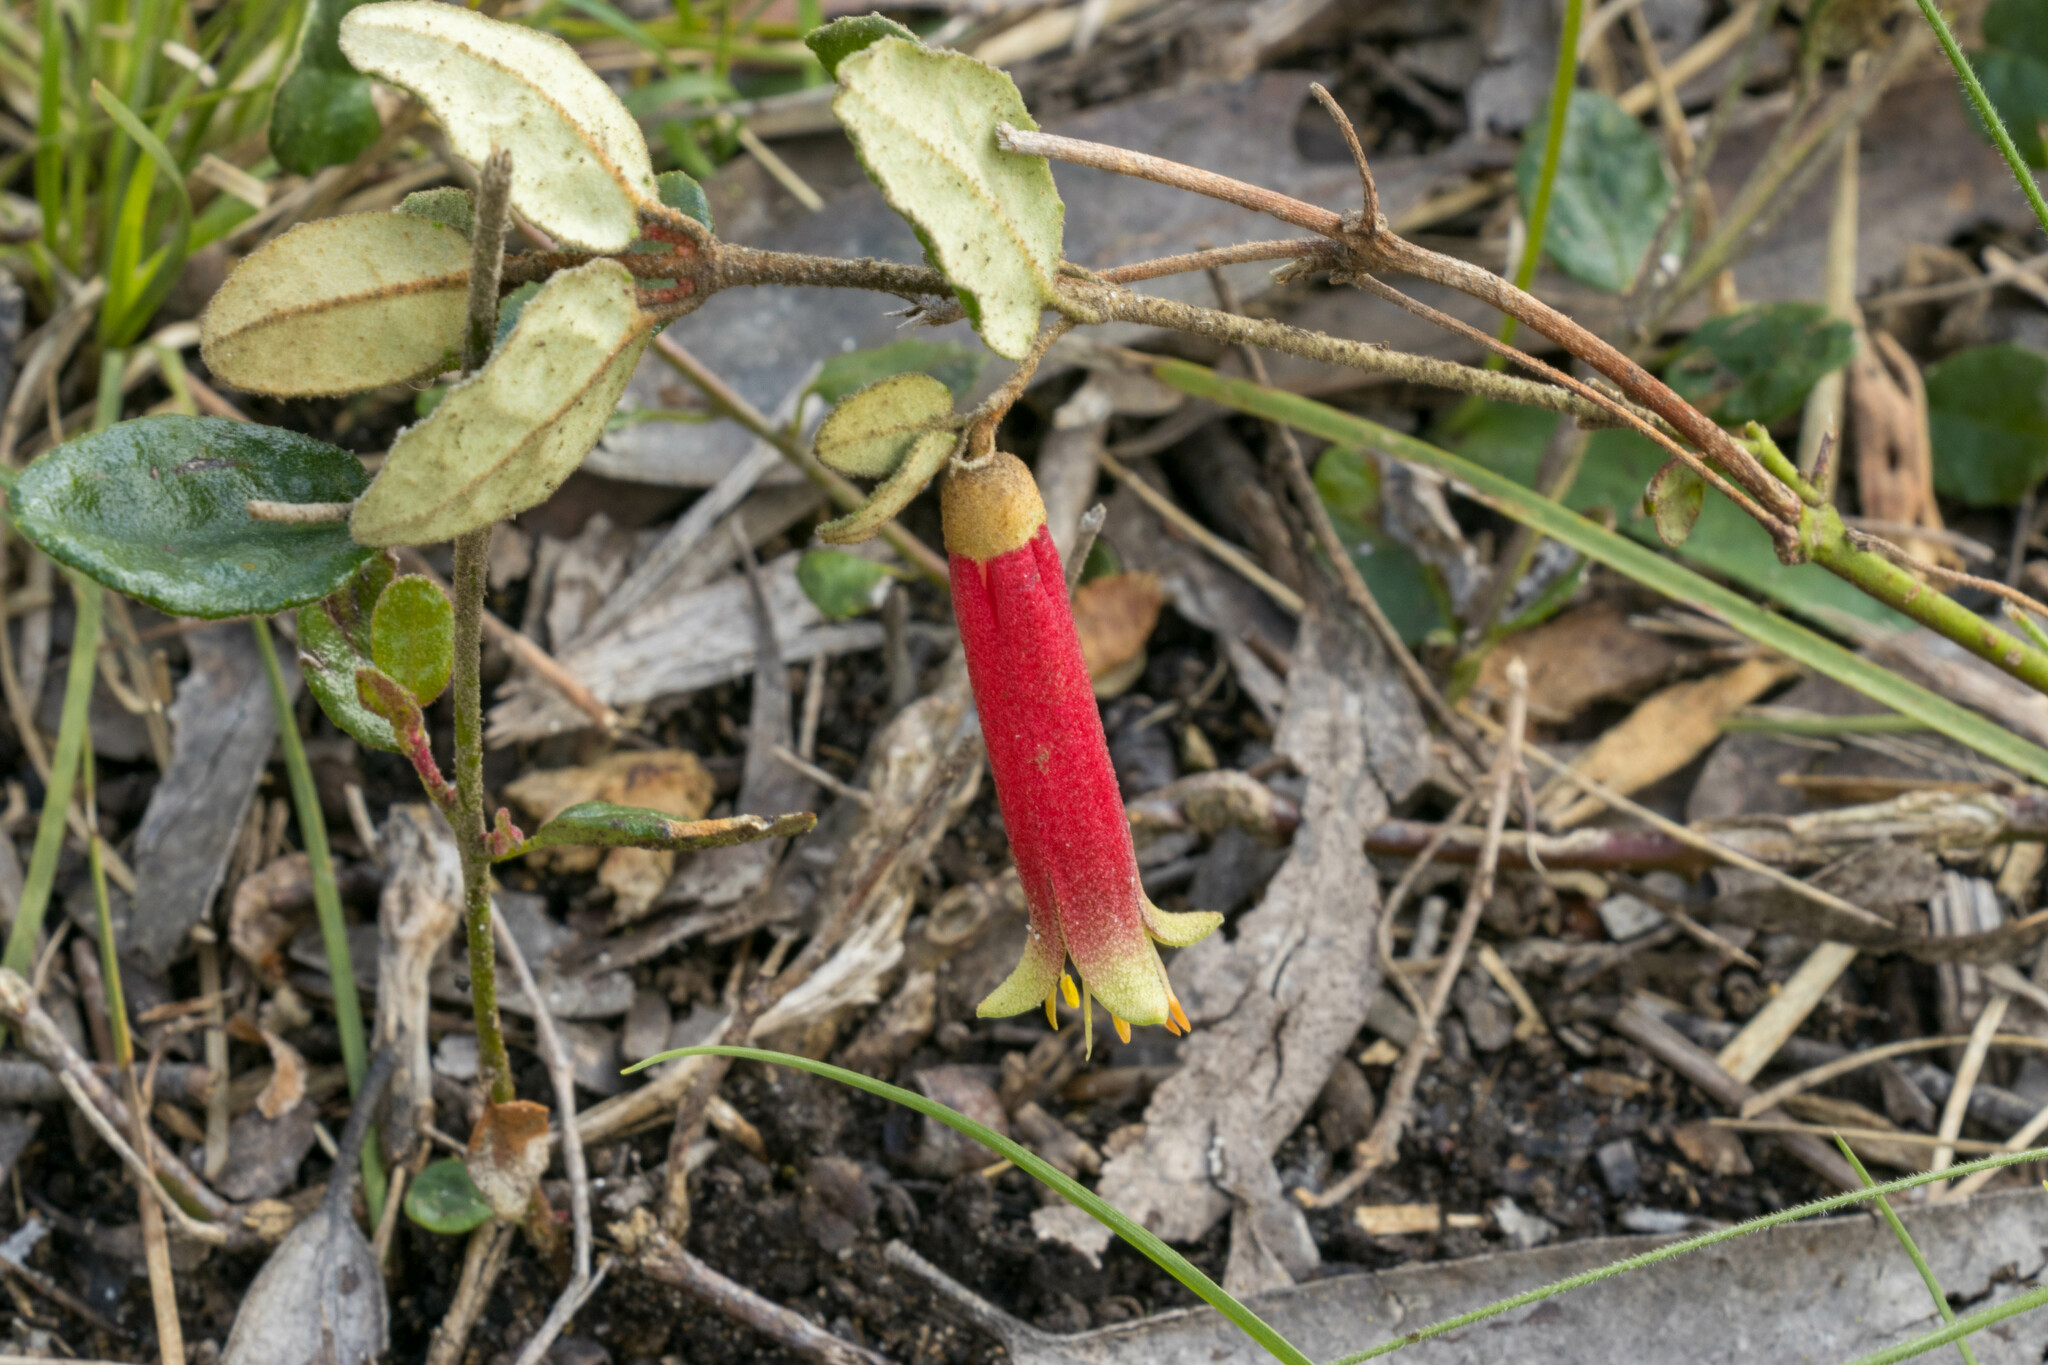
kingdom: Plantae
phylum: Tracheophyta
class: Magnoliopsida
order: Sapindales
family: Rutaceae
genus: Correa
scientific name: Correa reflexa
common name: Common correa
